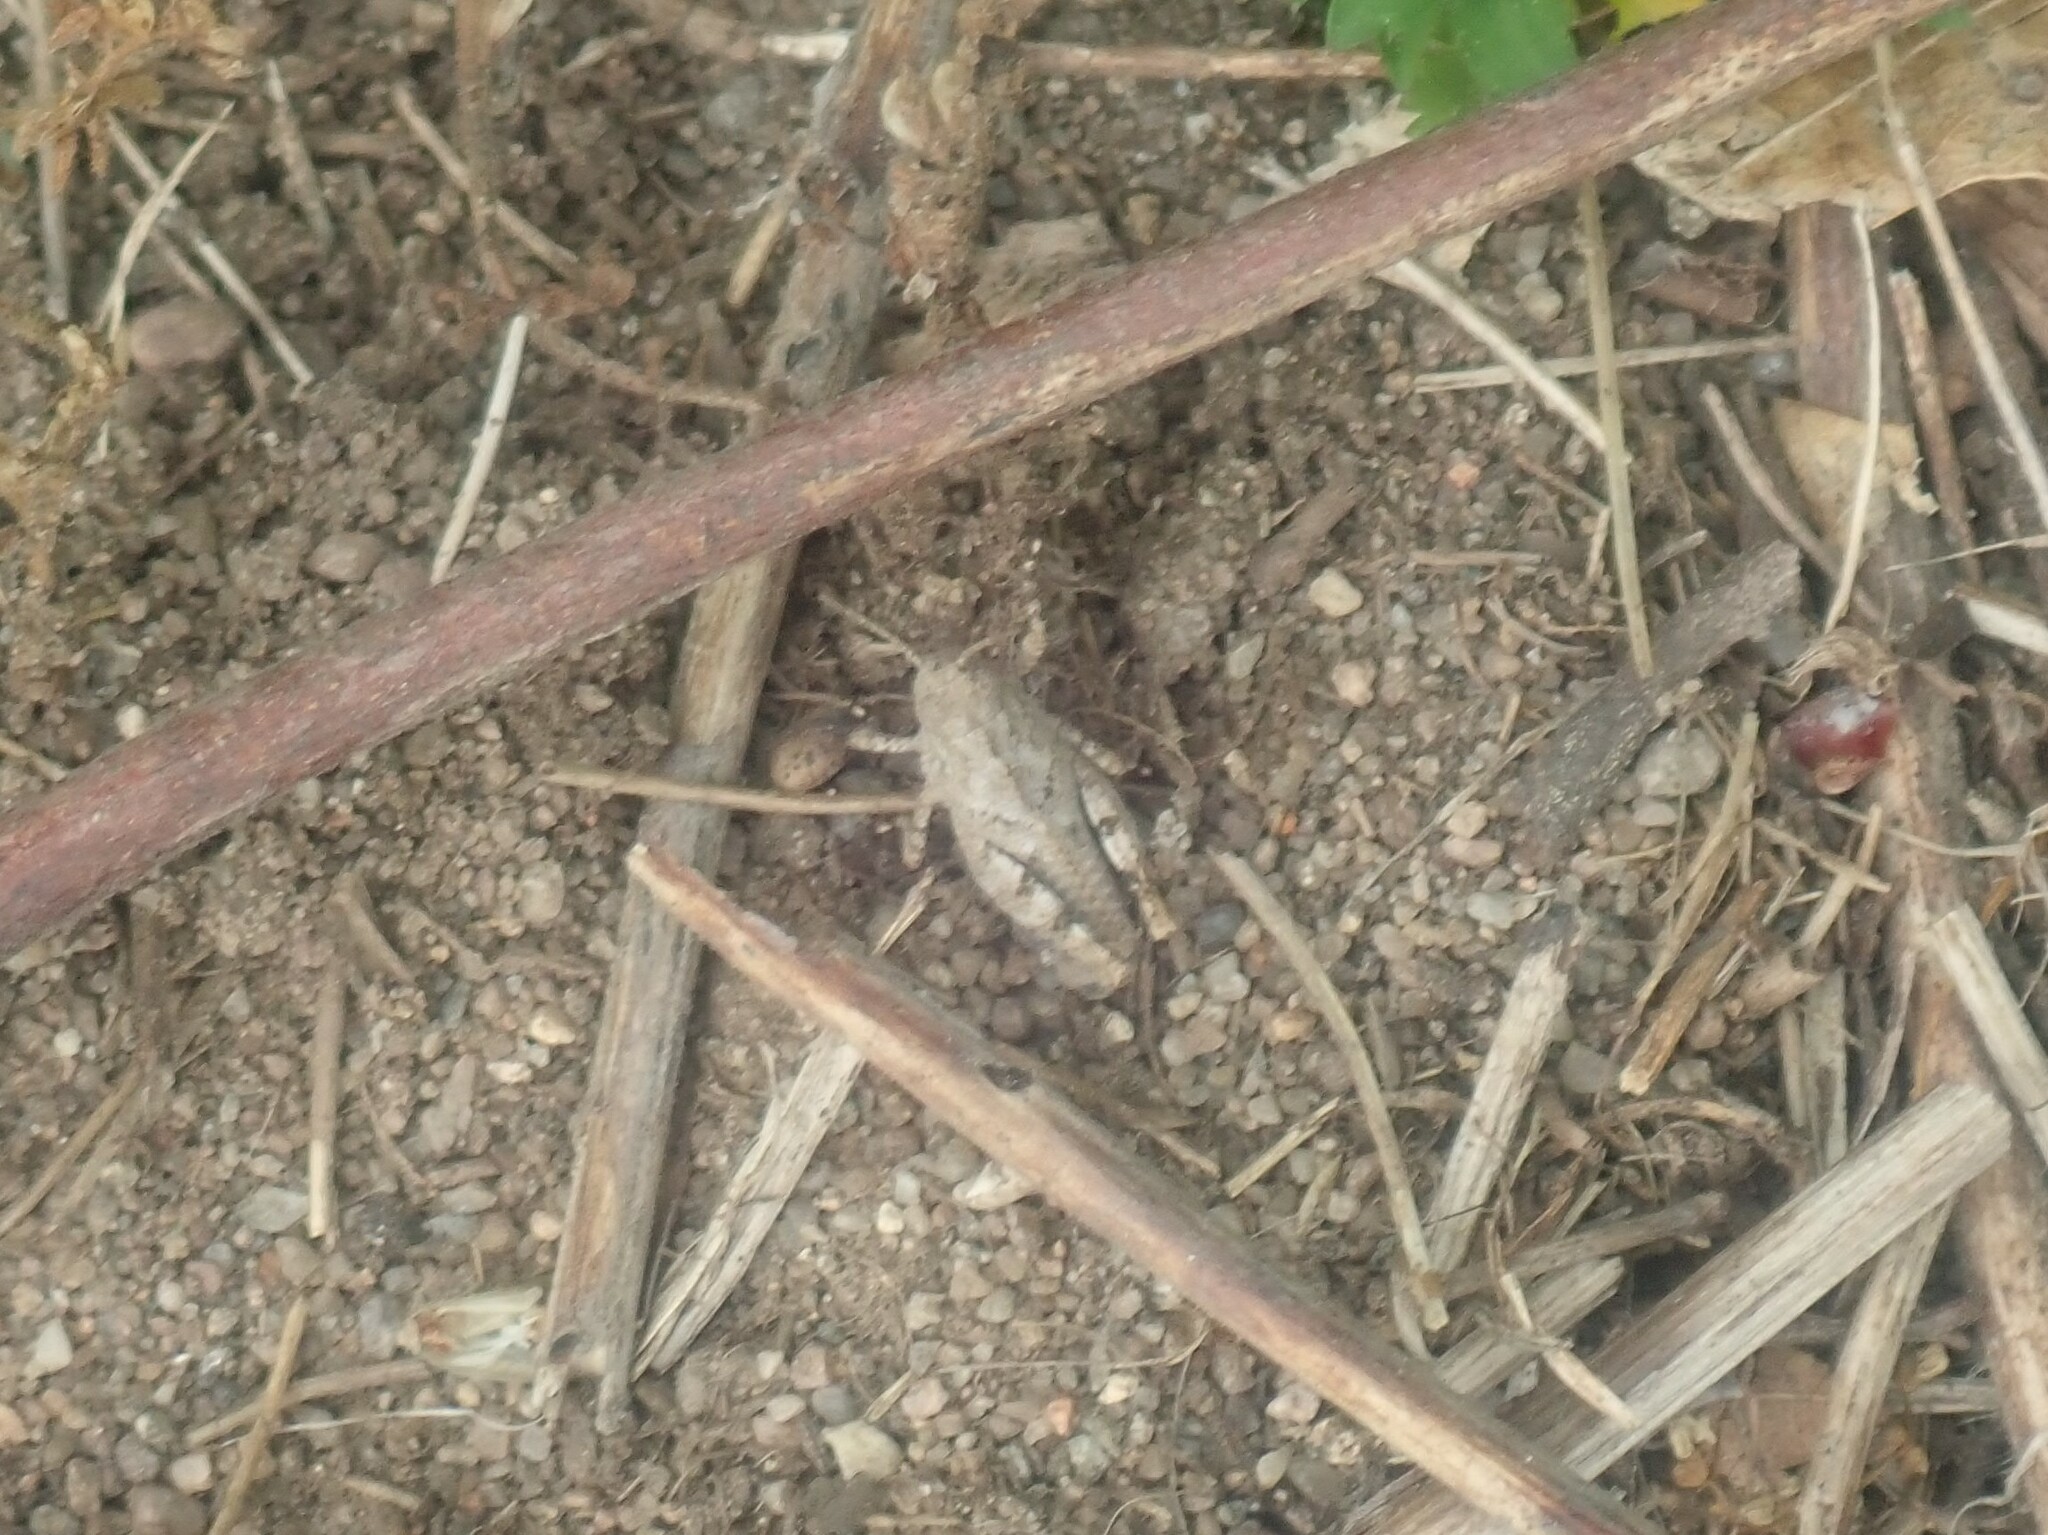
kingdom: Animalia
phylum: Arthropoda
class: Insecta
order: Orthoptera
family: Acrididae
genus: Dissosteira
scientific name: Dissosteira carolina
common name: Carolina grasshopper
